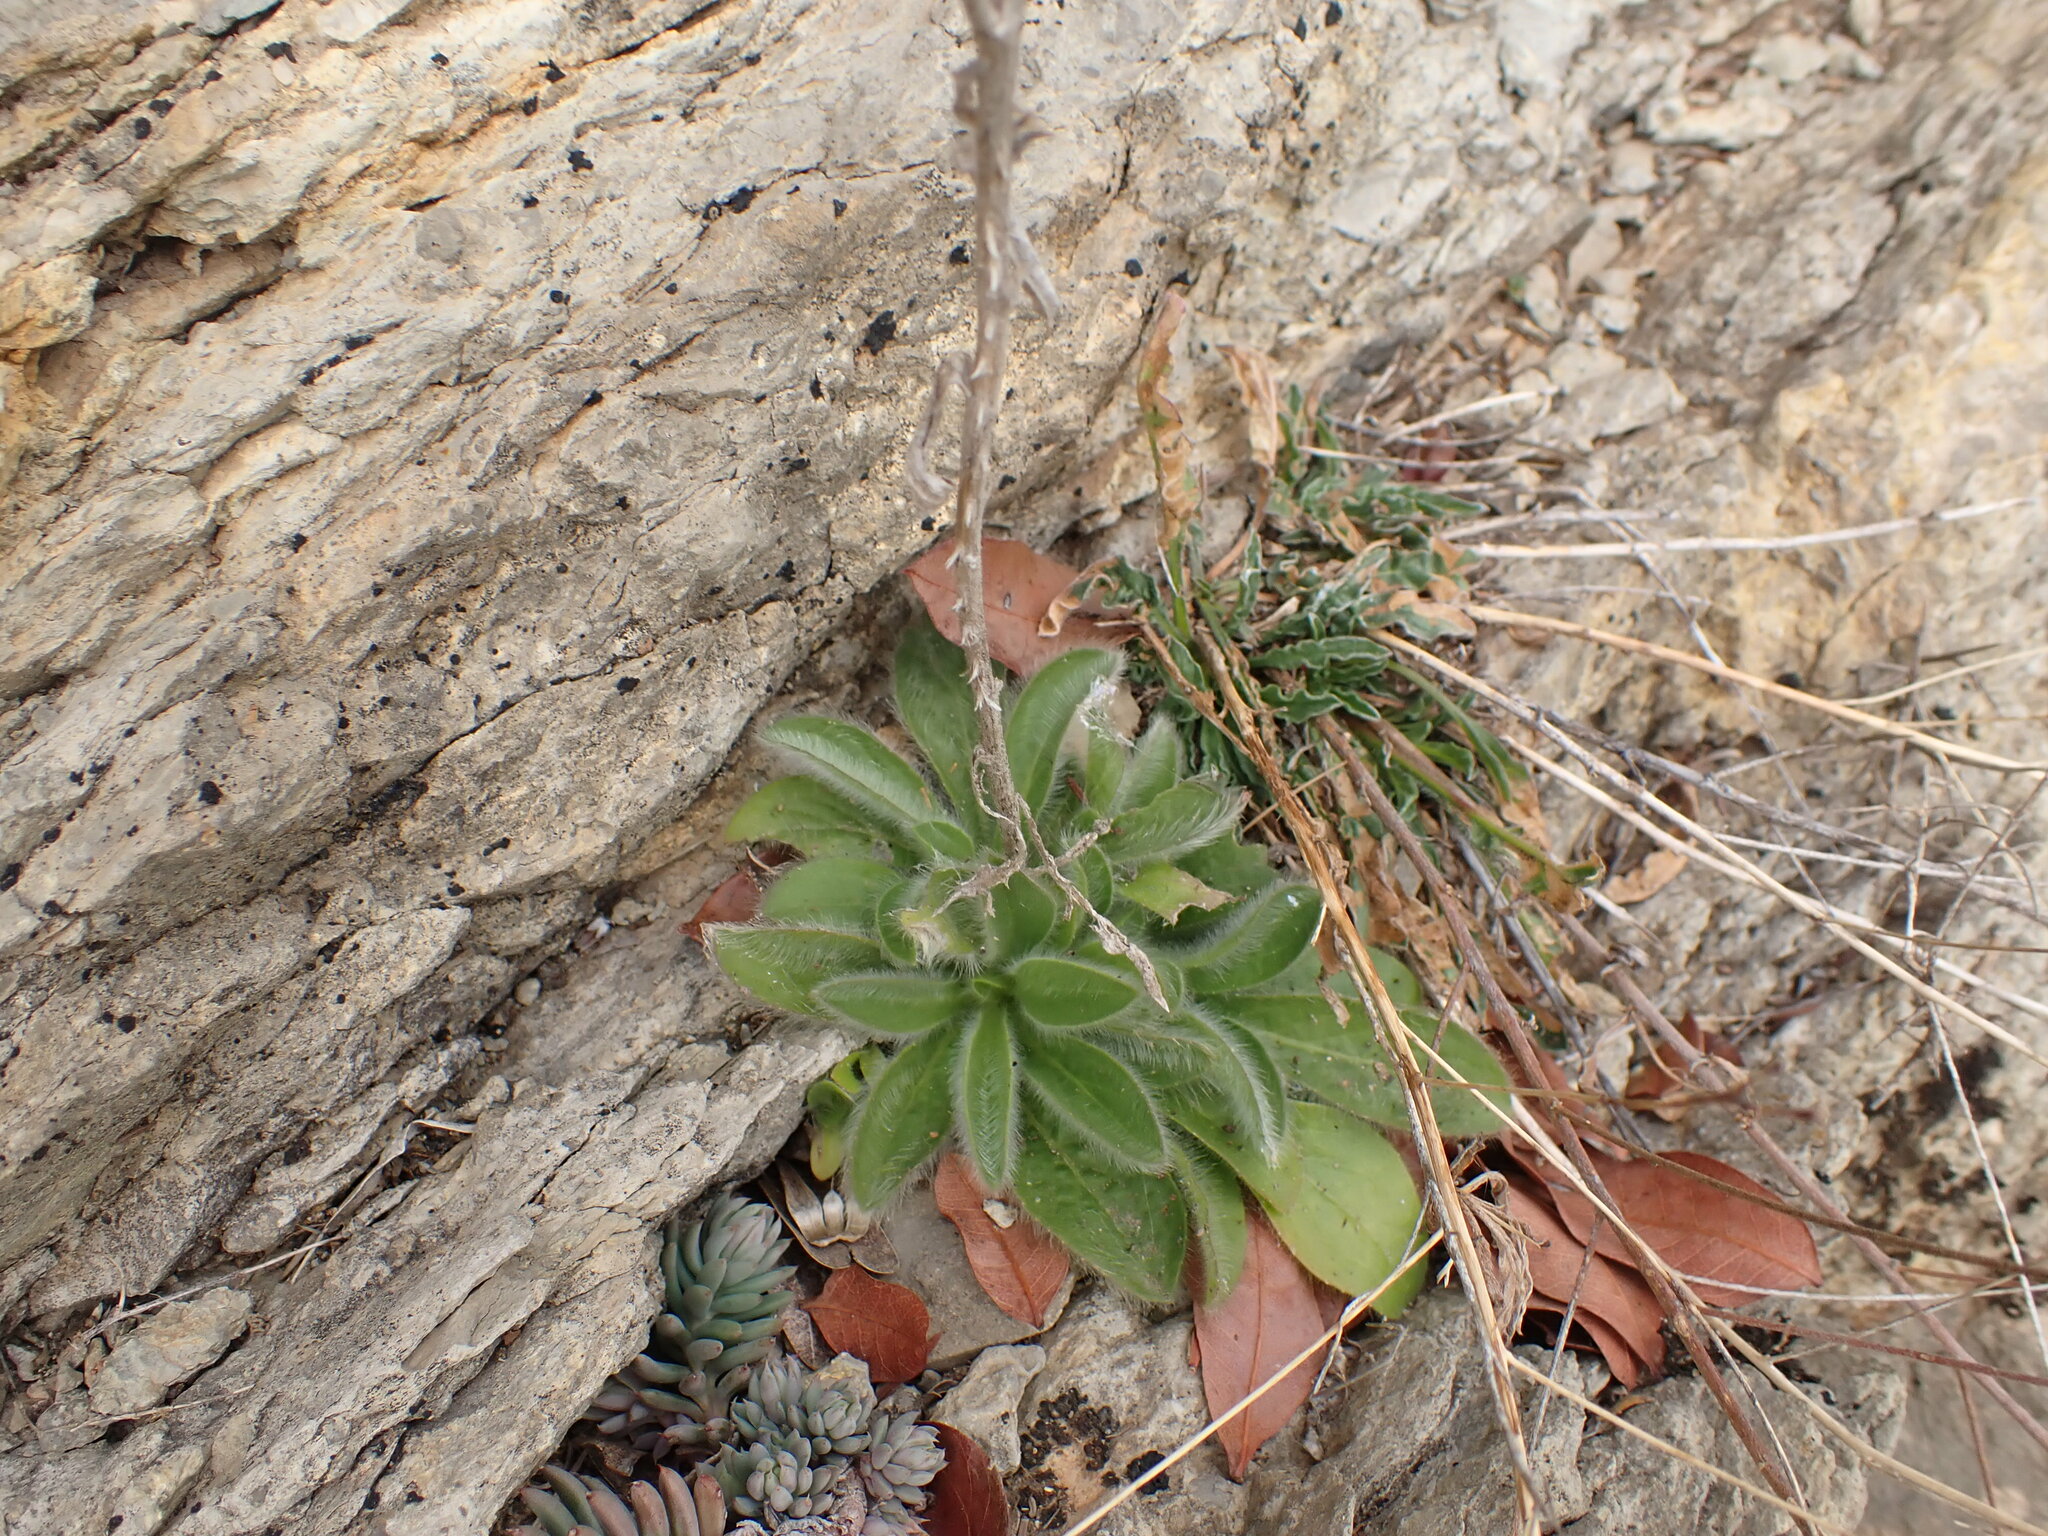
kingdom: Plantae
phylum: Tracheophyta
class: Magnoliopsida
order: Asterales
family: Asteraceae
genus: Pallenis
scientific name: Pallenis spinosa
